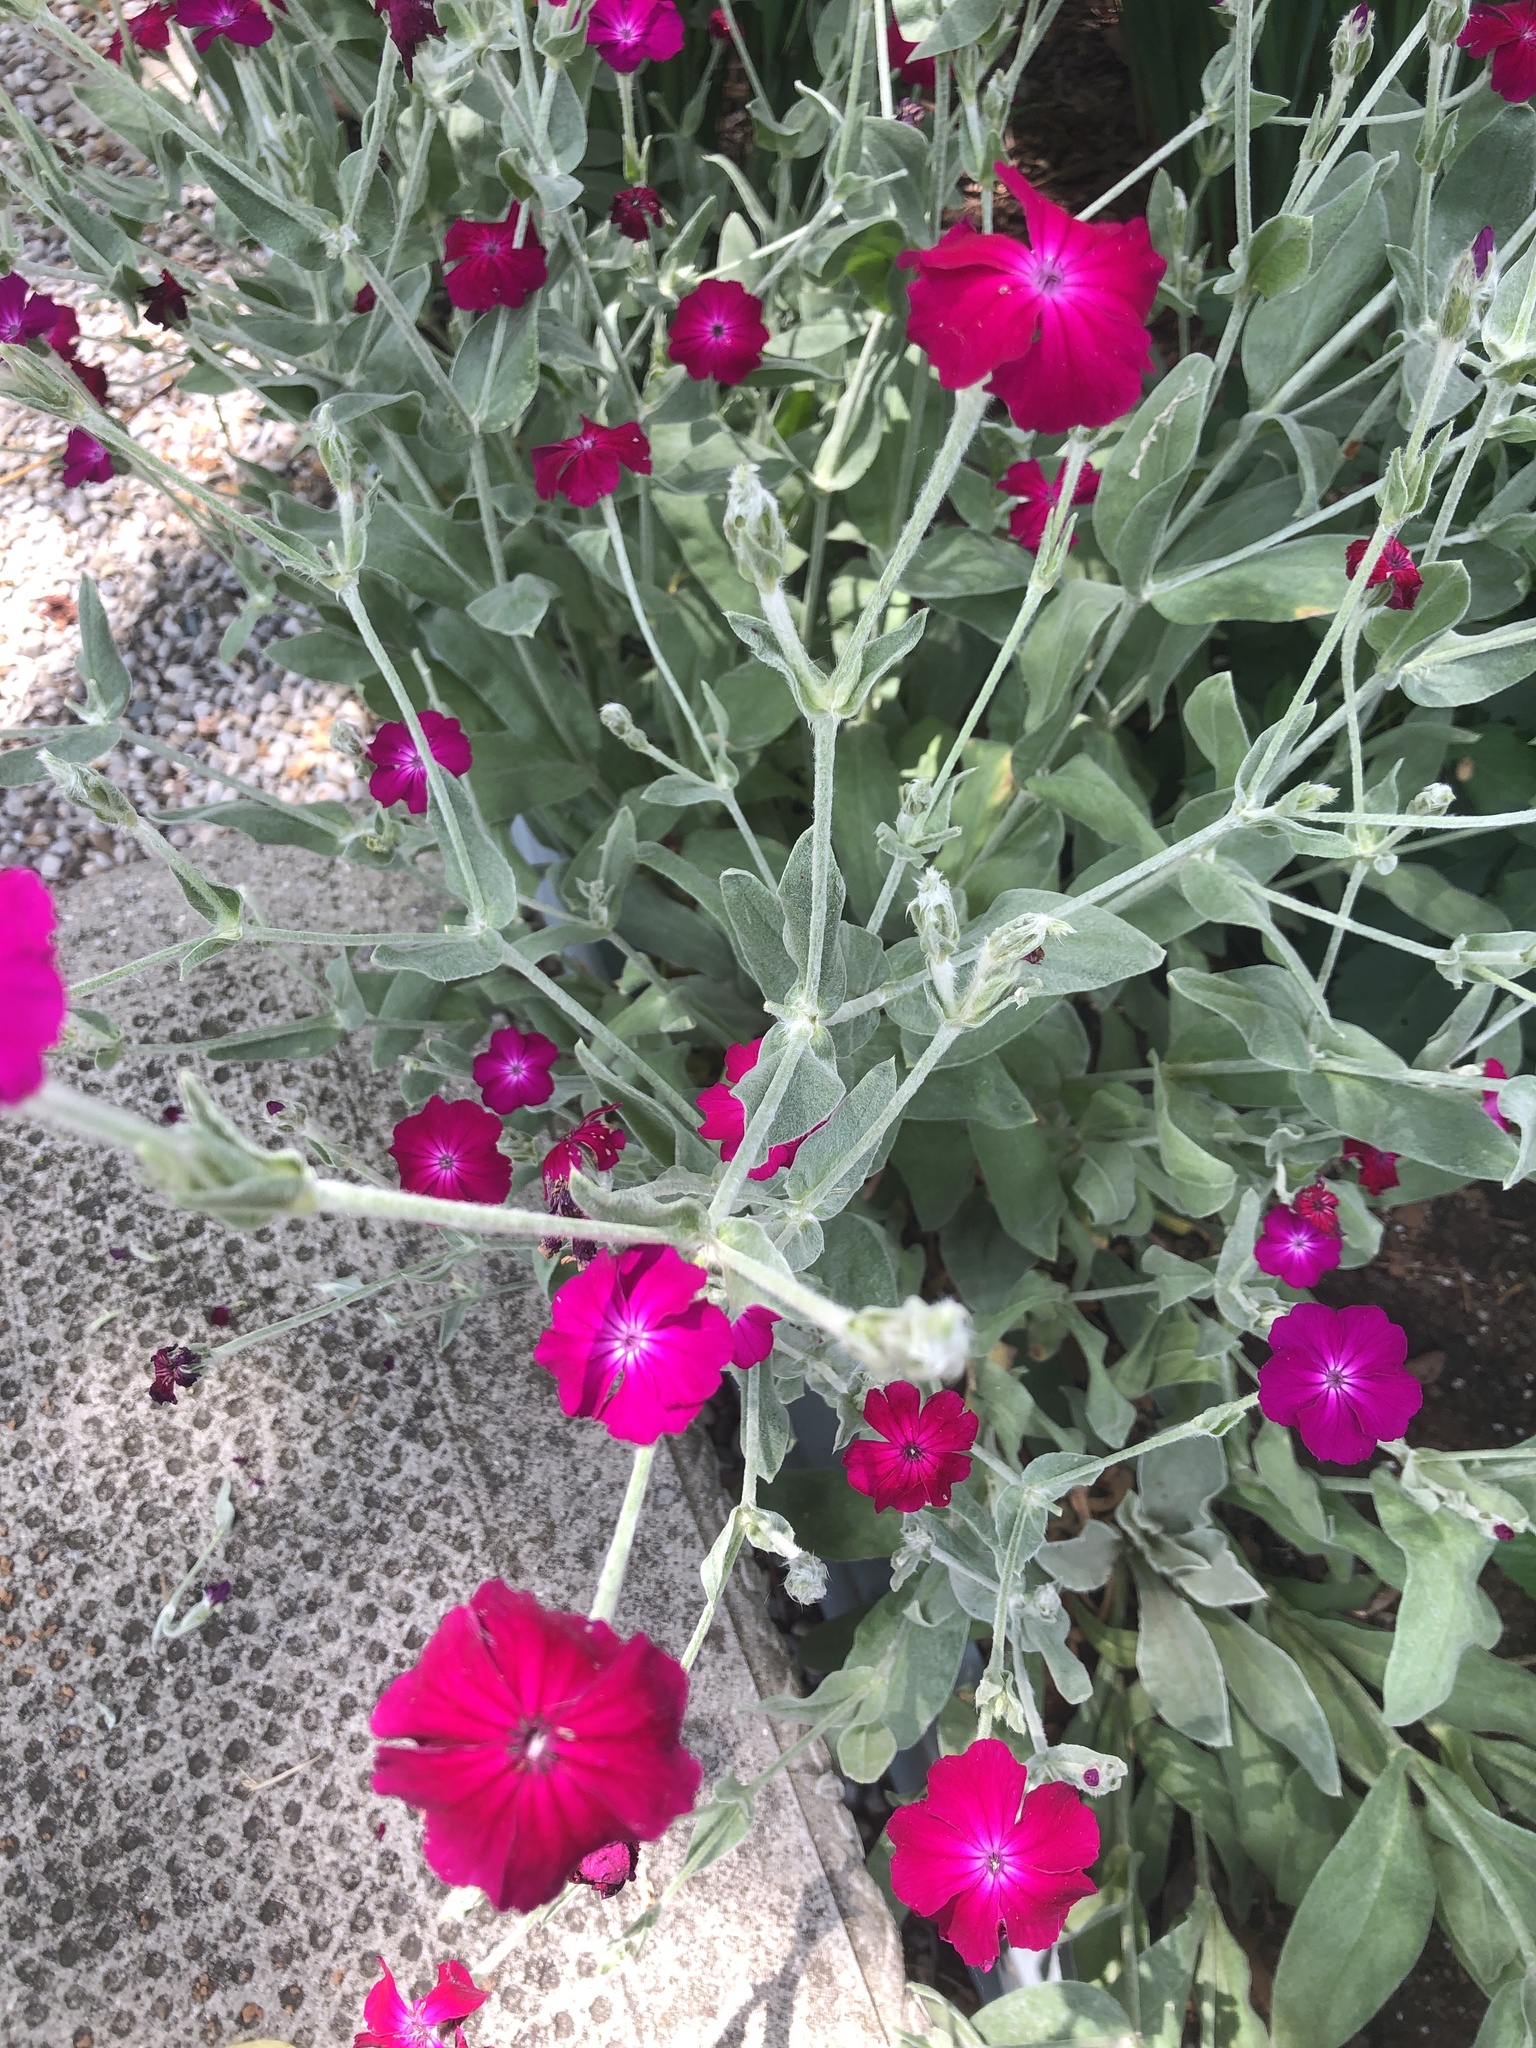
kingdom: Plantae
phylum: Tracheophyta
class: Magnoliopsida
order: Caryophyllales
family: Caryophyllaceae
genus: Silene
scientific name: Silene coronaria
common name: Rose campion
